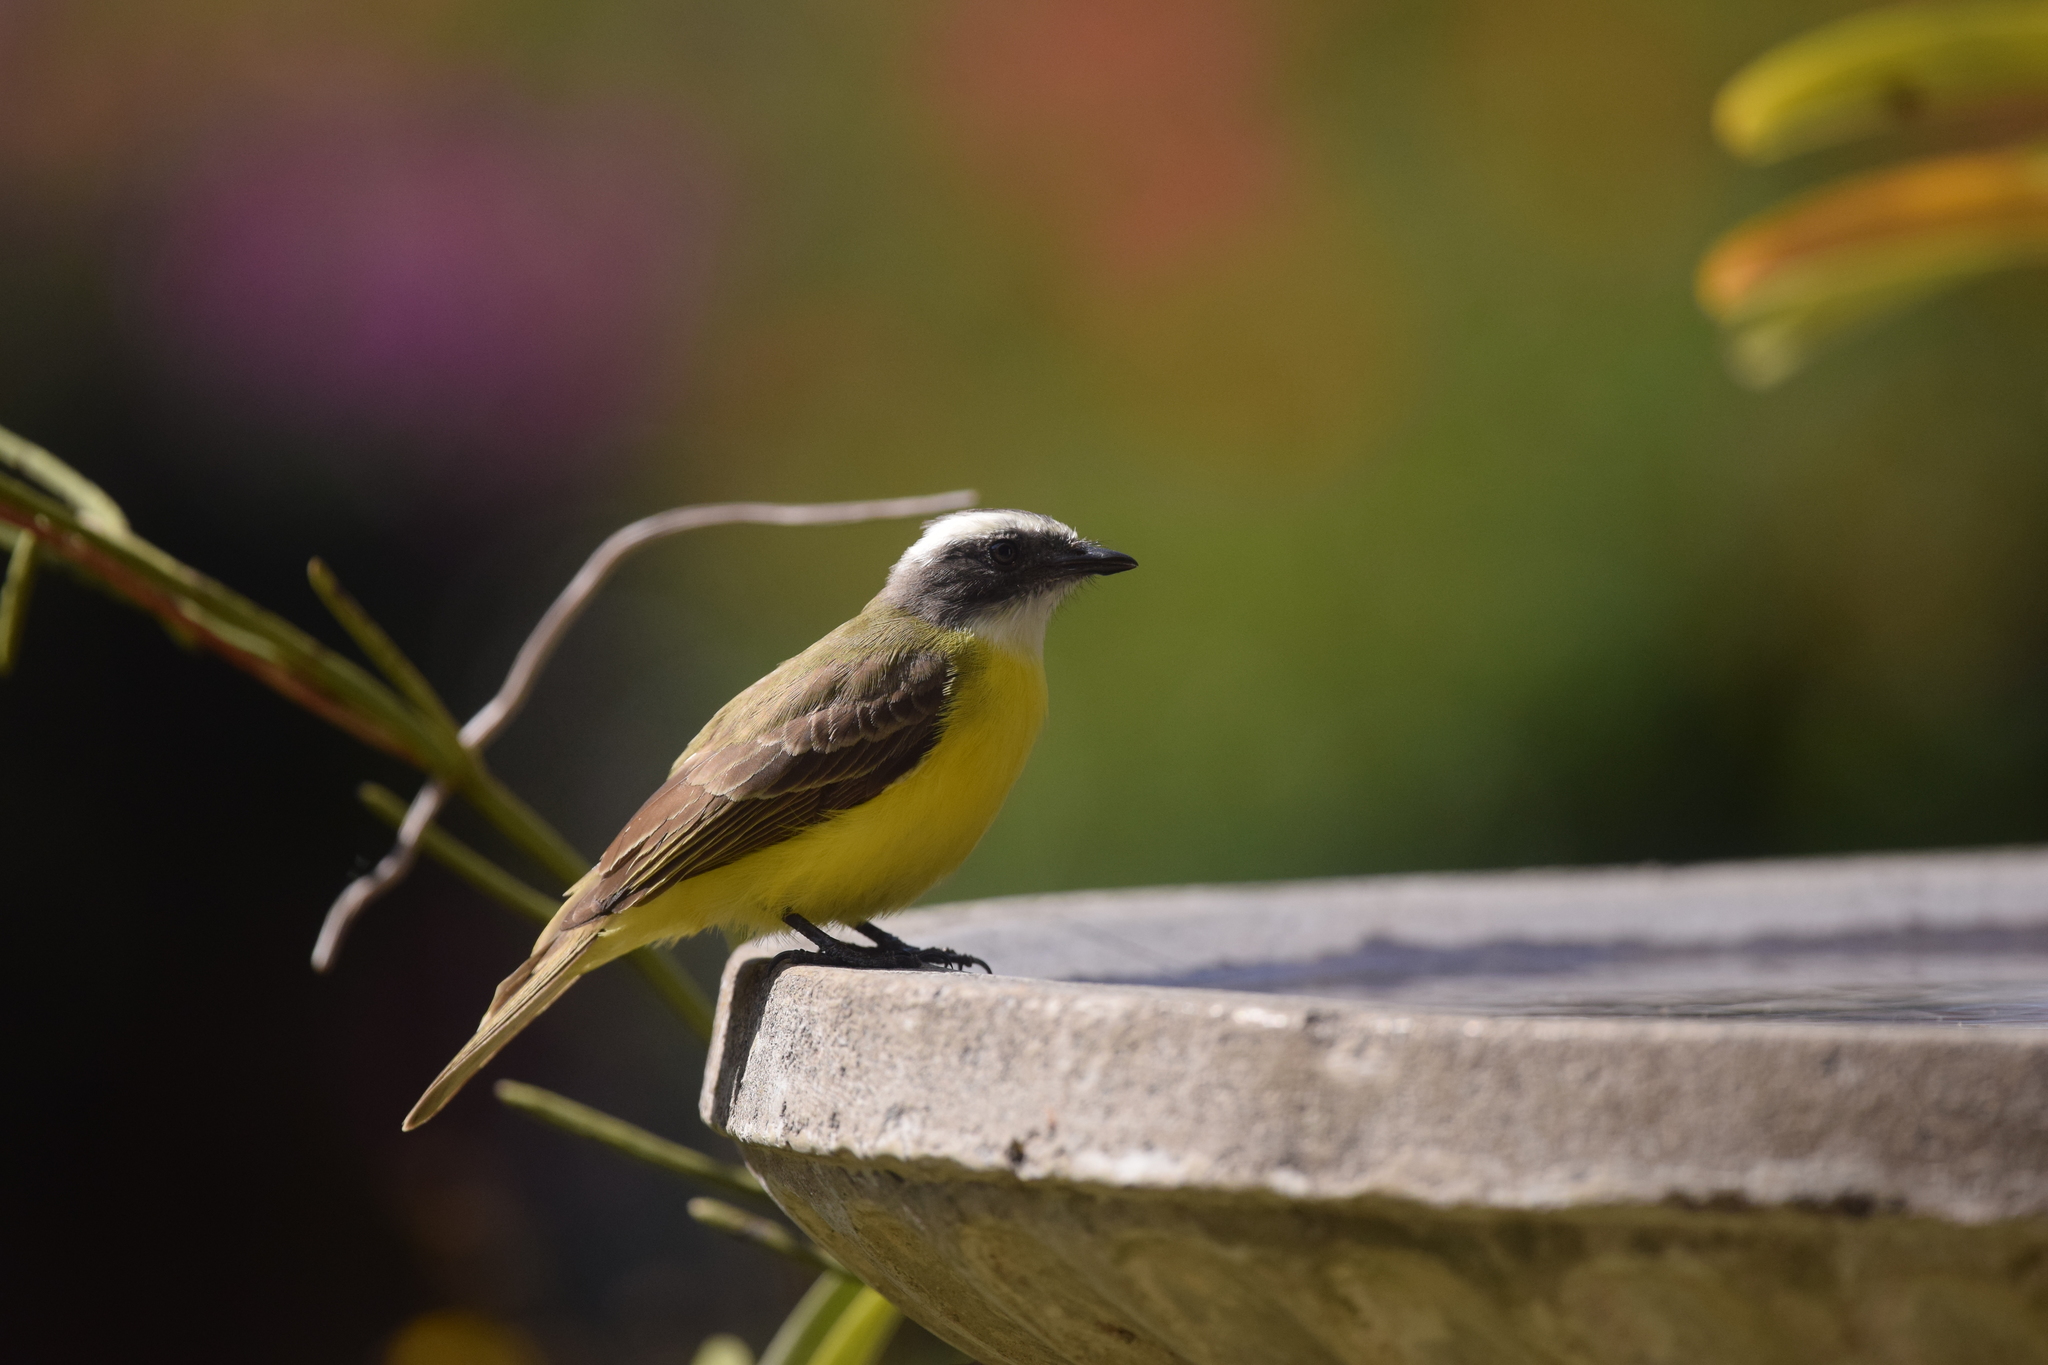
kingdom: Animalia
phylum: Chordata
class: Aves
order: Passeriformes
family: Tyrannidae
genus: Myiozetetes
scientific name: Myiozetetes similis
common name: Social flycatcher
